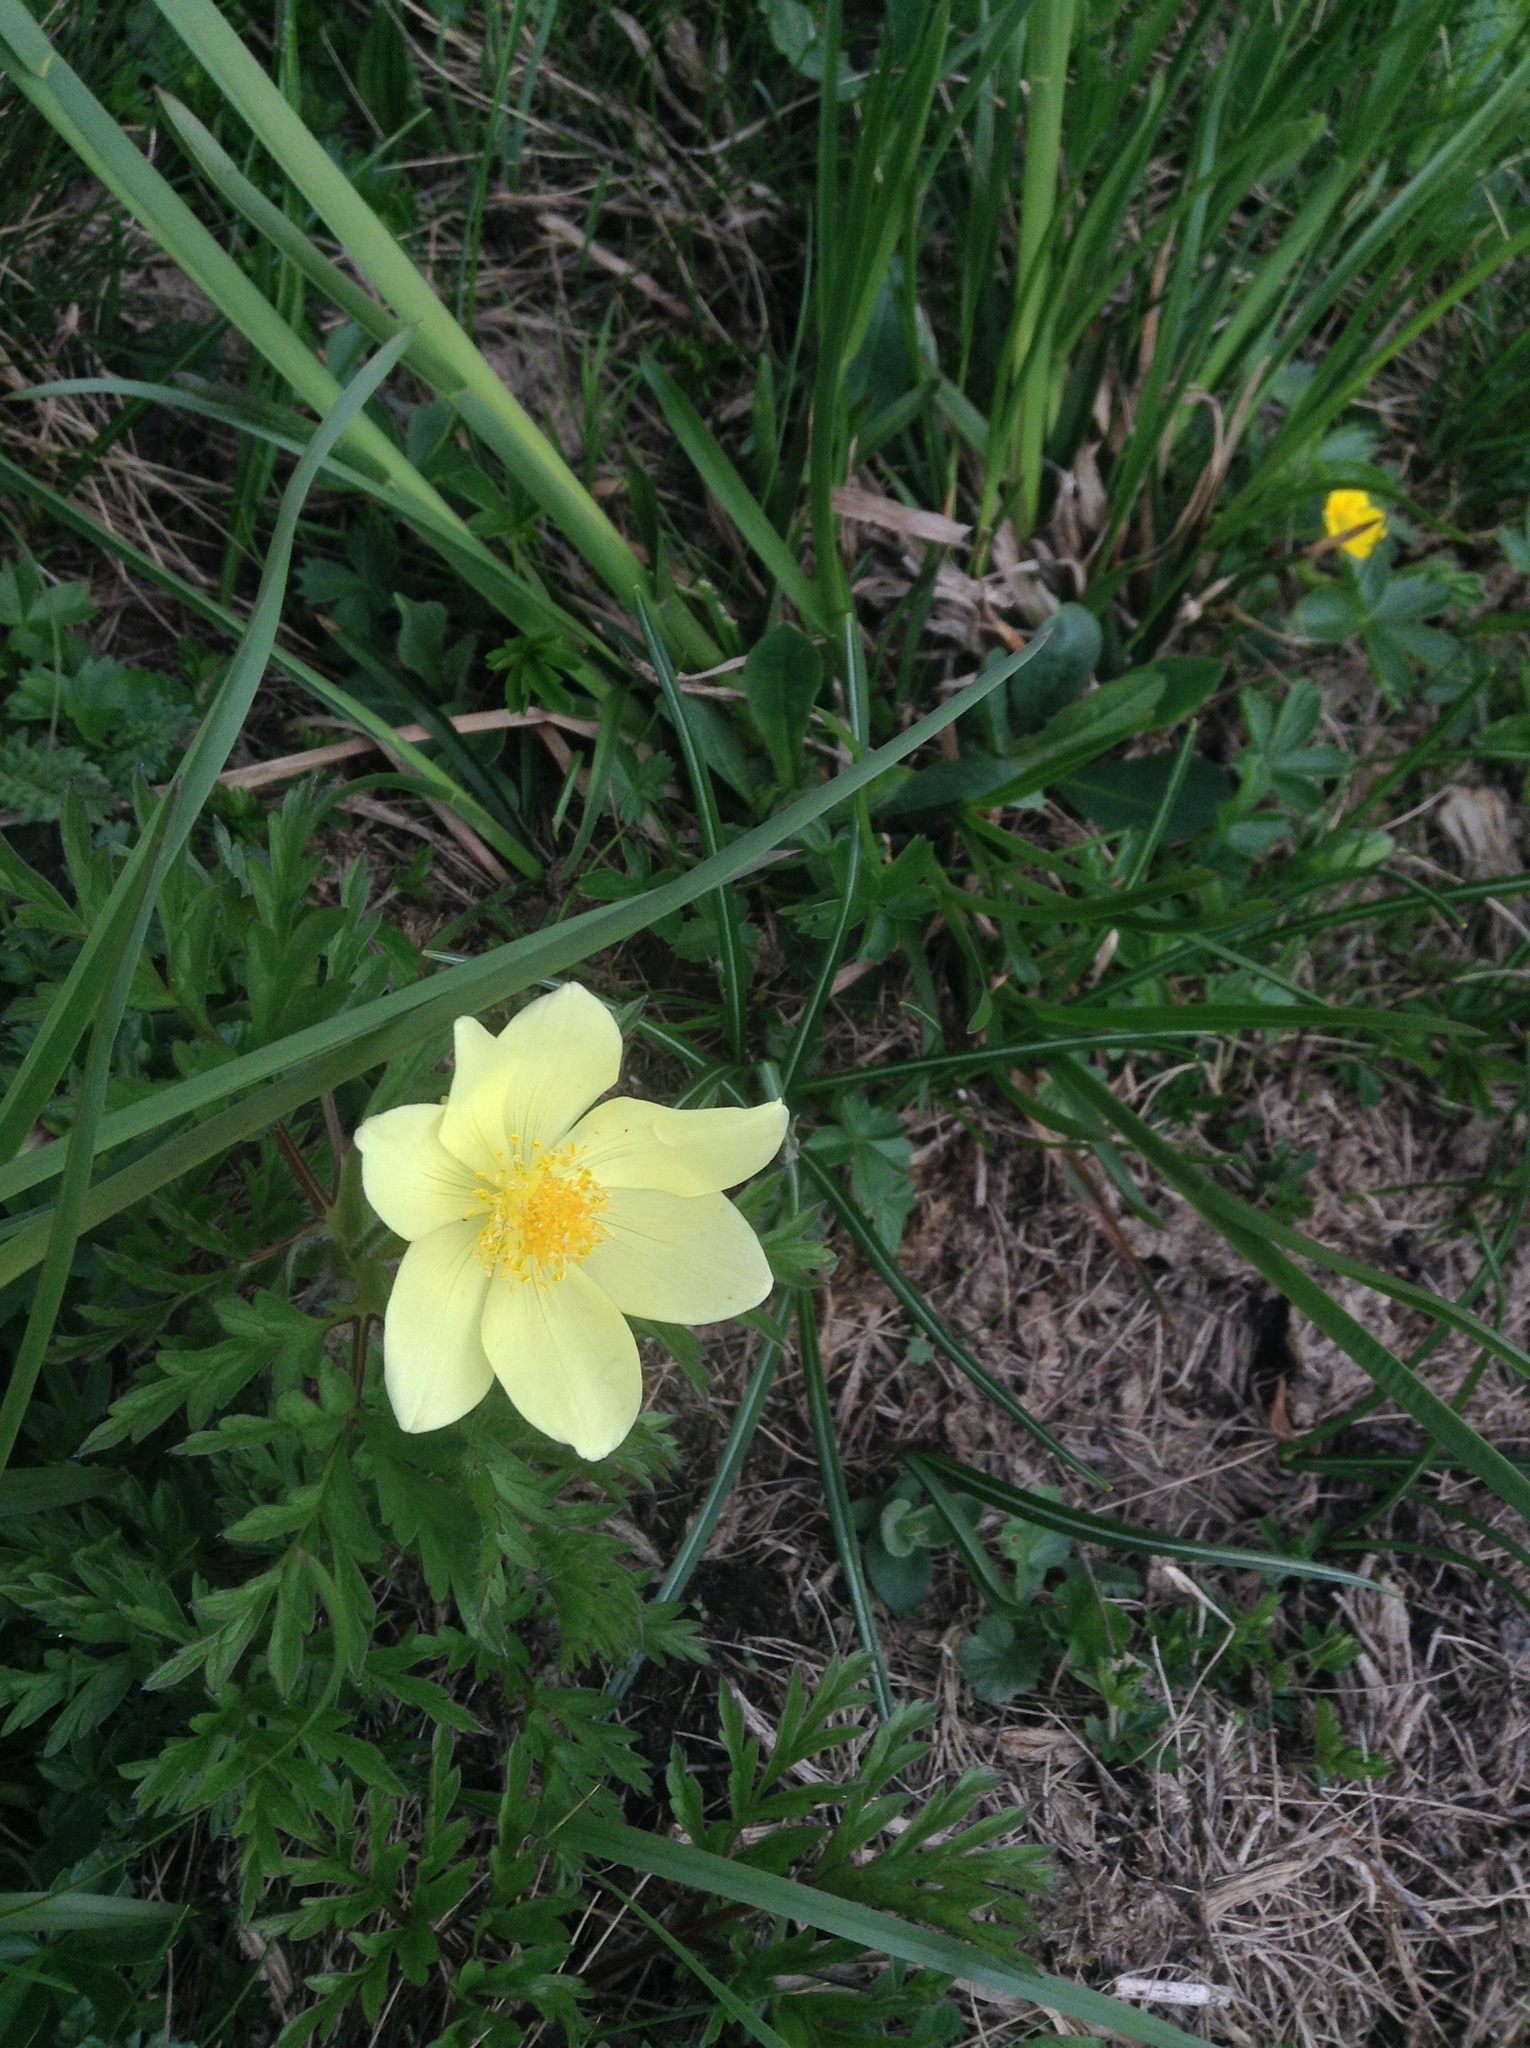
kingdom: Plantae
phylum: Tracheophyta
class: Magnoliopsida
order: Ranunculales
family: Ranunculaceae
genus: Pulsatilla
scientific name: Pulsatilla alpina
